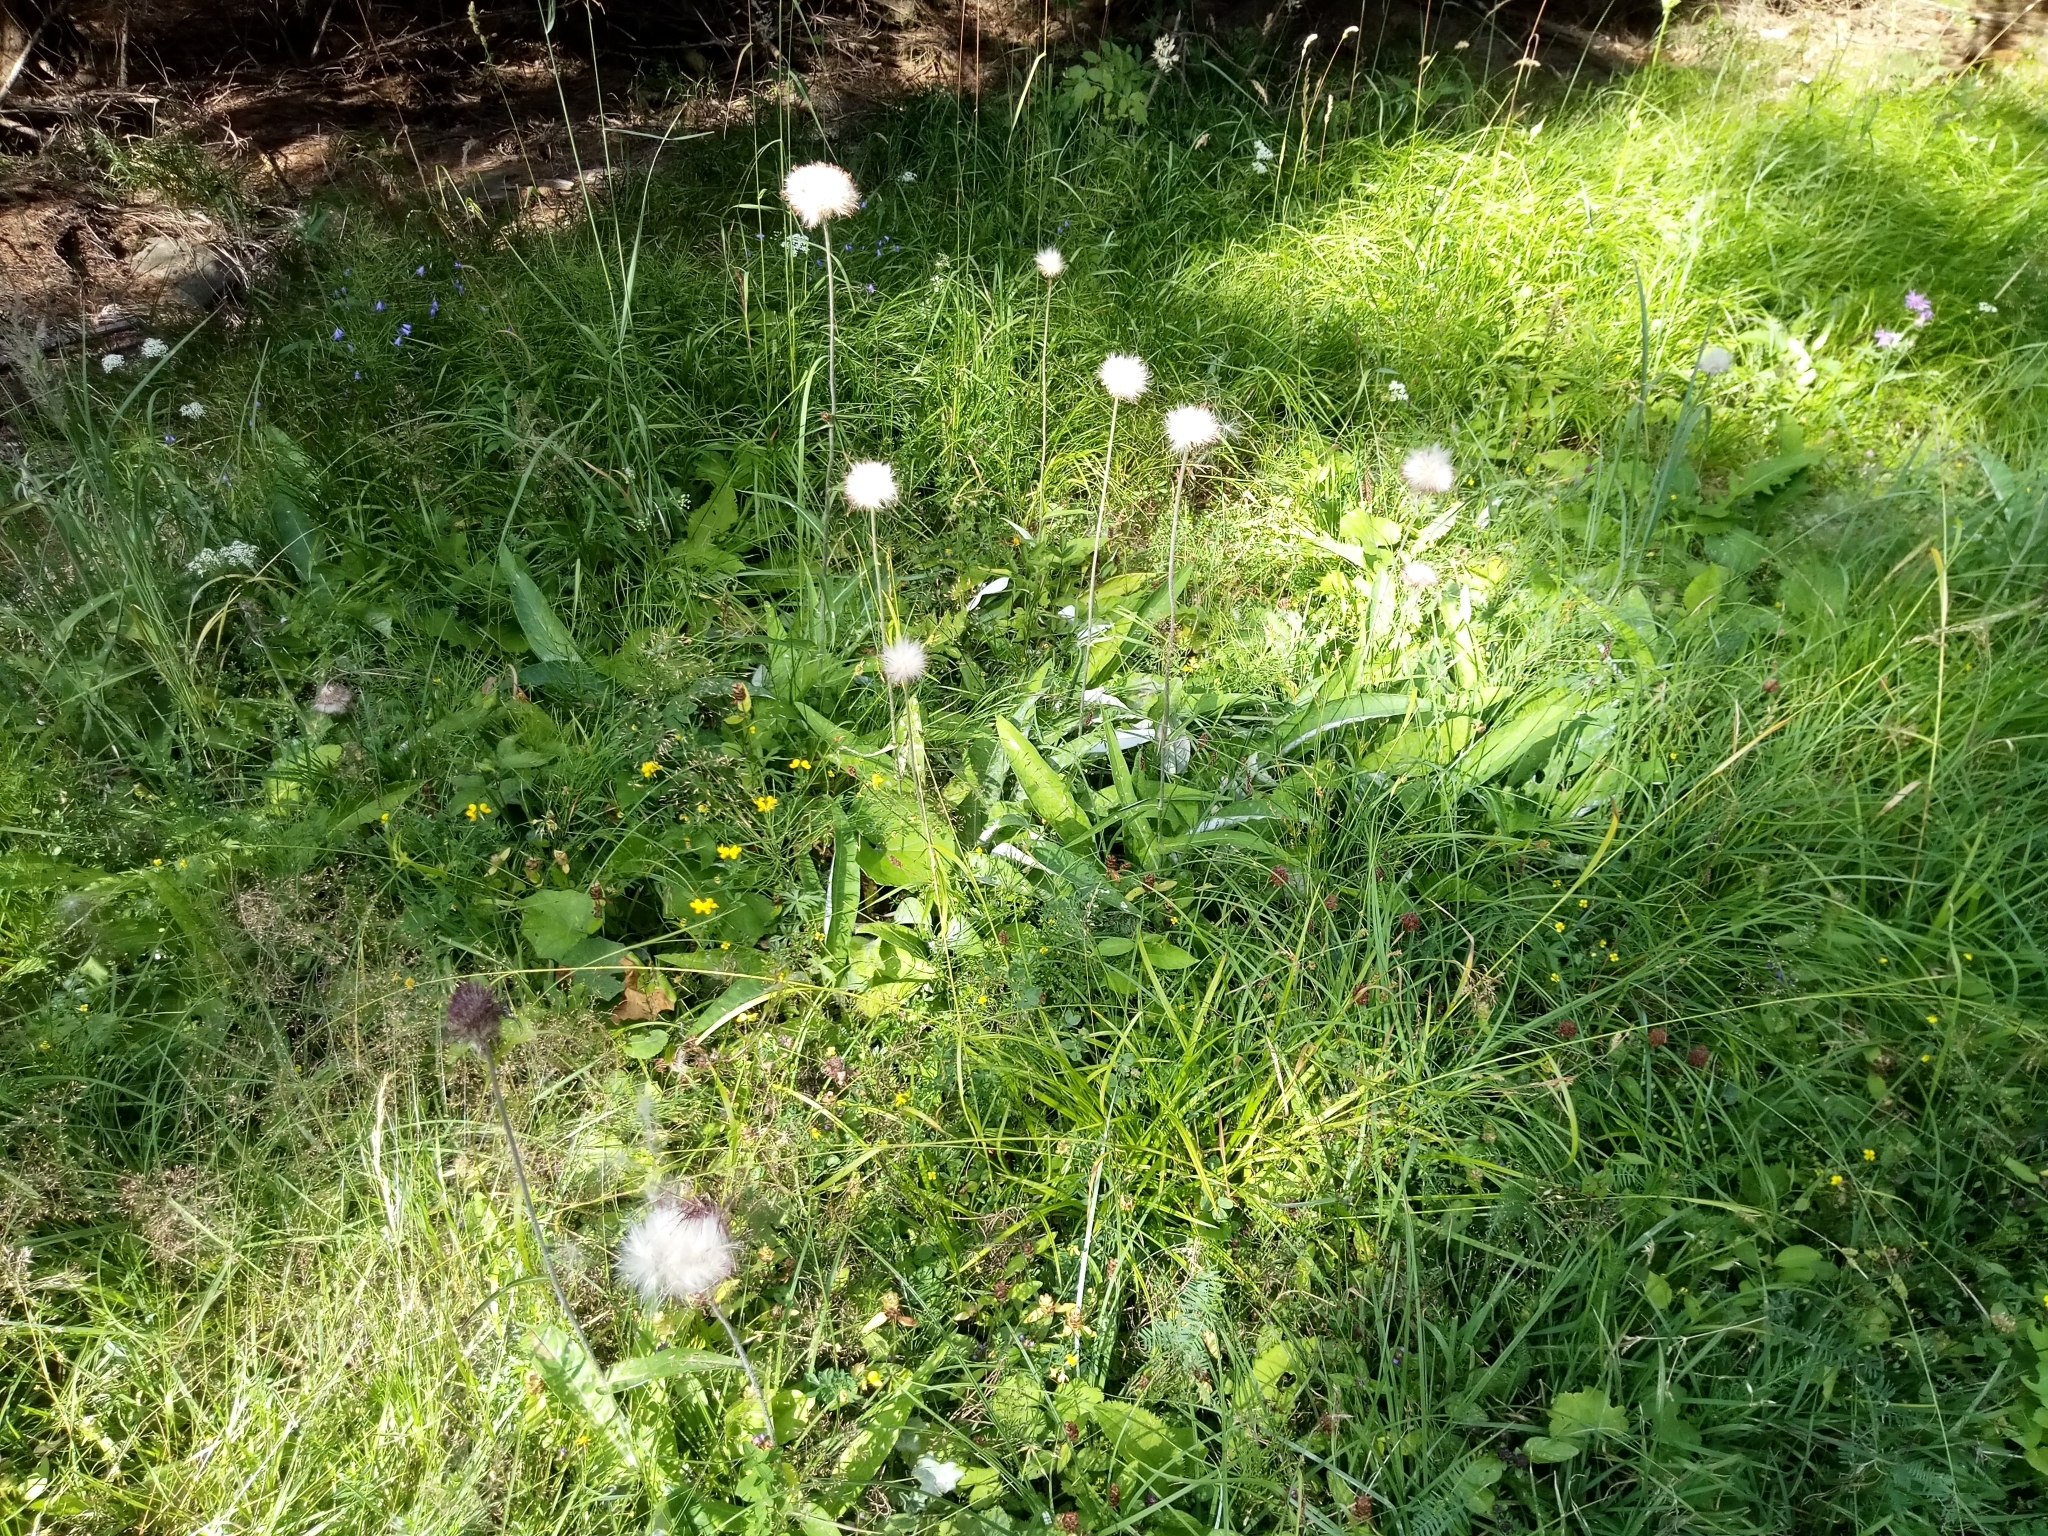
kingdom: Plantae
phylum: Tracheophyta
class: Magnoliopsida
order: Asterales
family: Asteraceae
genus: Cirsium
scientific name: Cirsium heterophyllum
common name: Melancholy thistle
